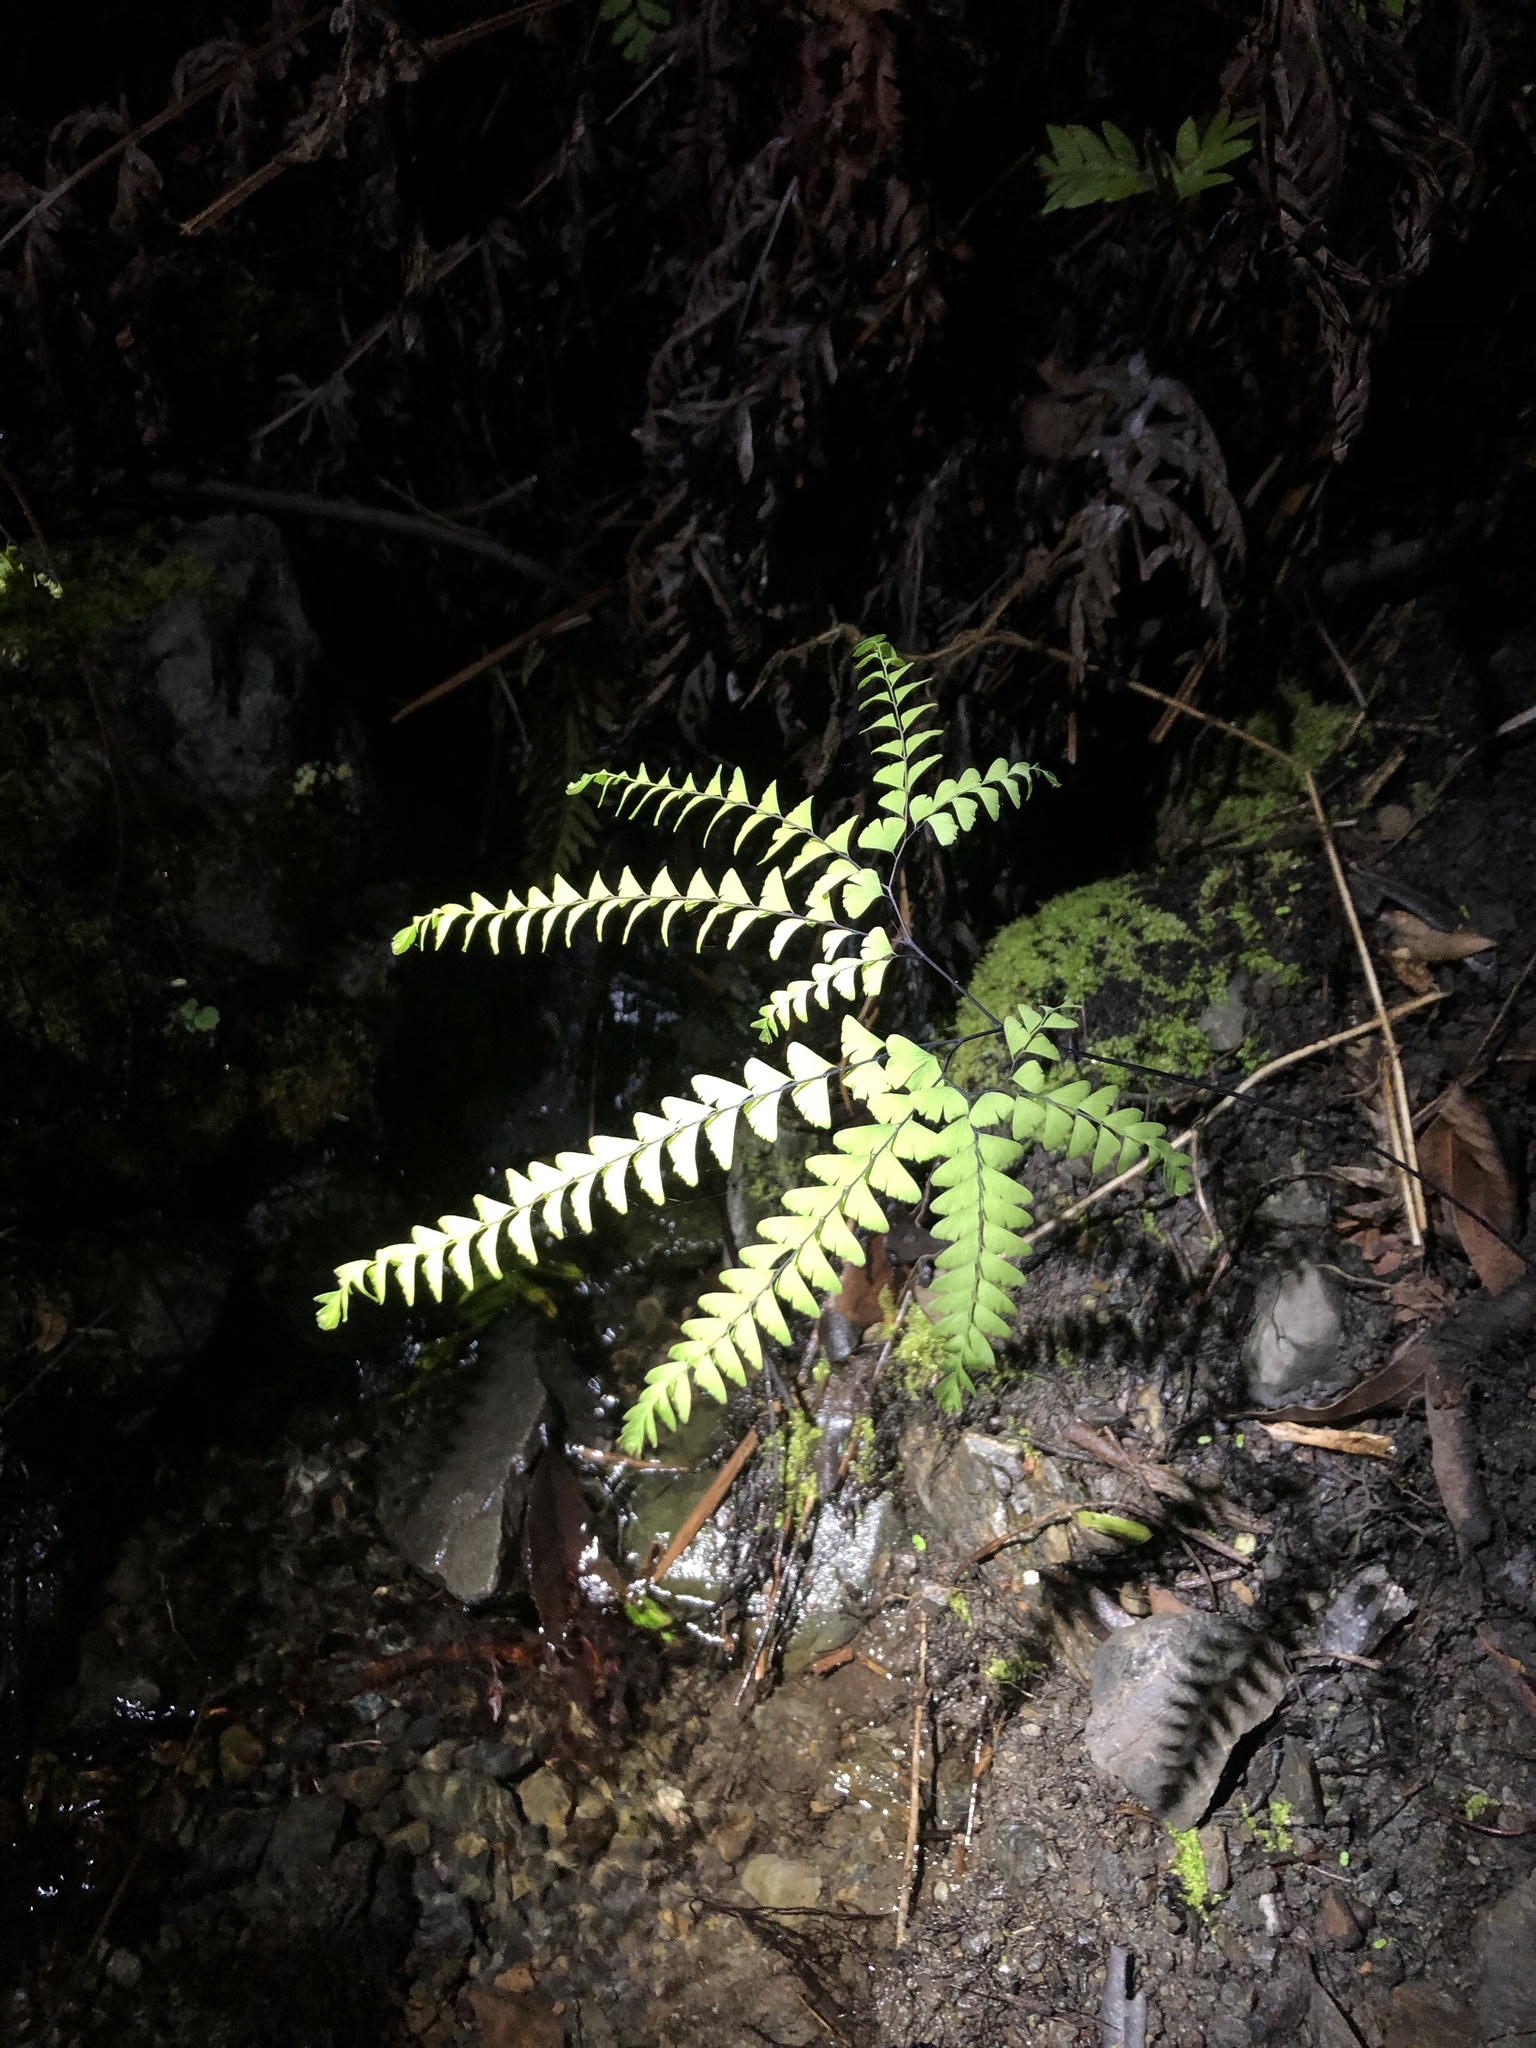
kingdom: Plantae
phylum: Tracheophyta
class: Polypodiopsida
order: Polypodiales
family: Pteridaceae
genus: Adiantum
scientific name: Adiantum aleuticum
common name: Aleutian maidenhair fern
